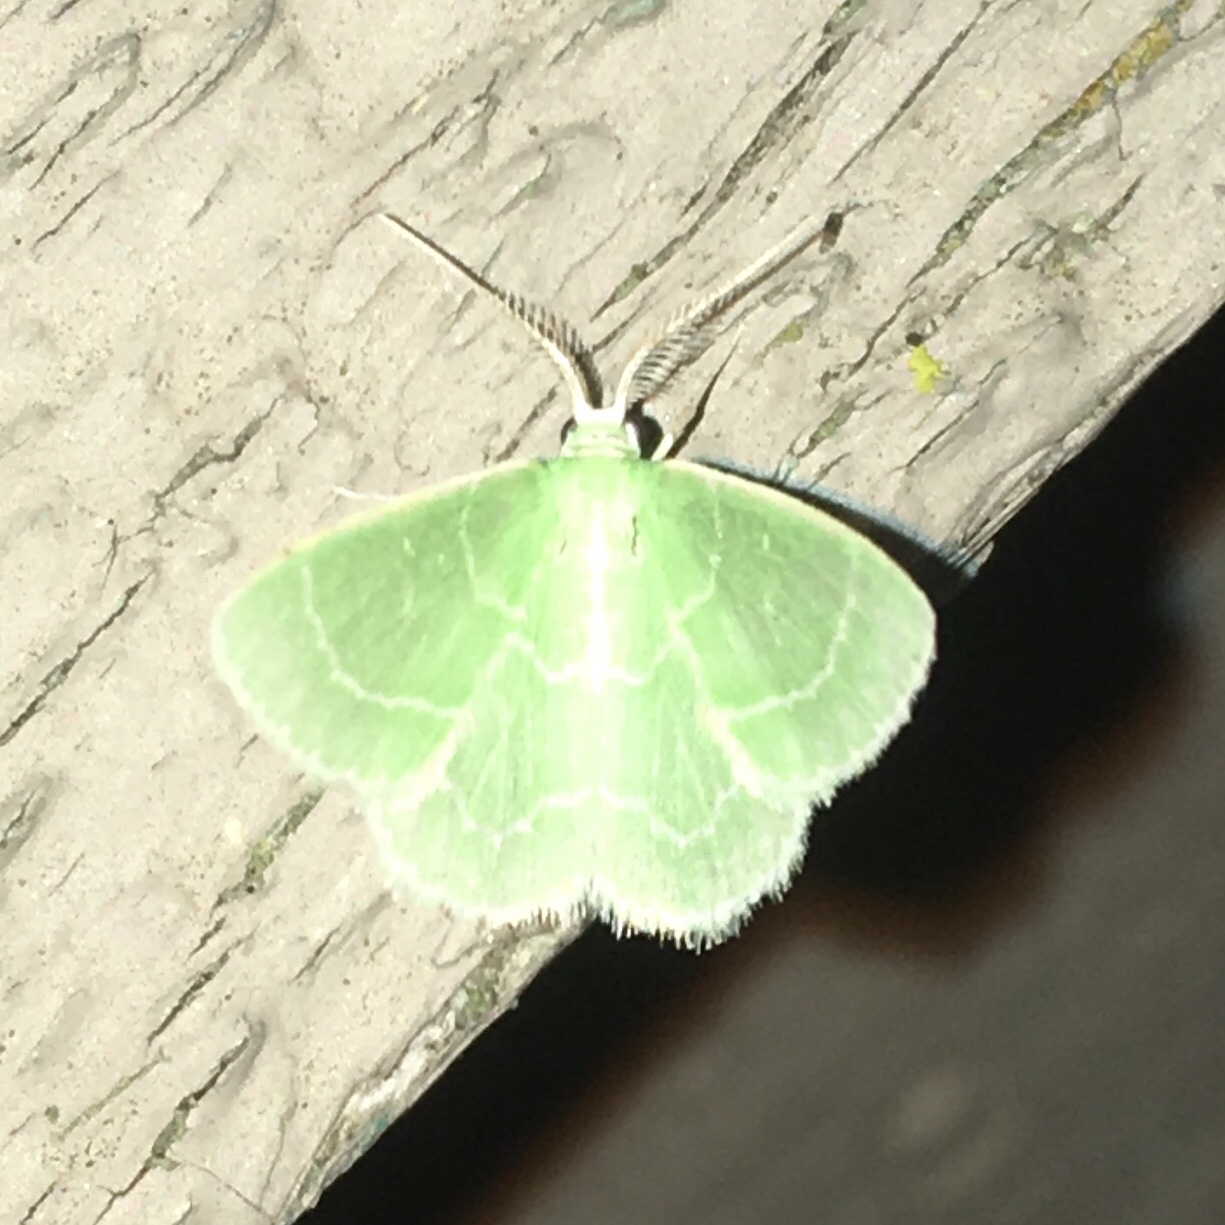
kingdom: Animalia
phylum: Arthropoda
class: Insecta
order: Lepidoptera
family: Geometridae
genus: Synchlora
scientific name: Synchlora aerata
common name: Wavy-lined emerald
